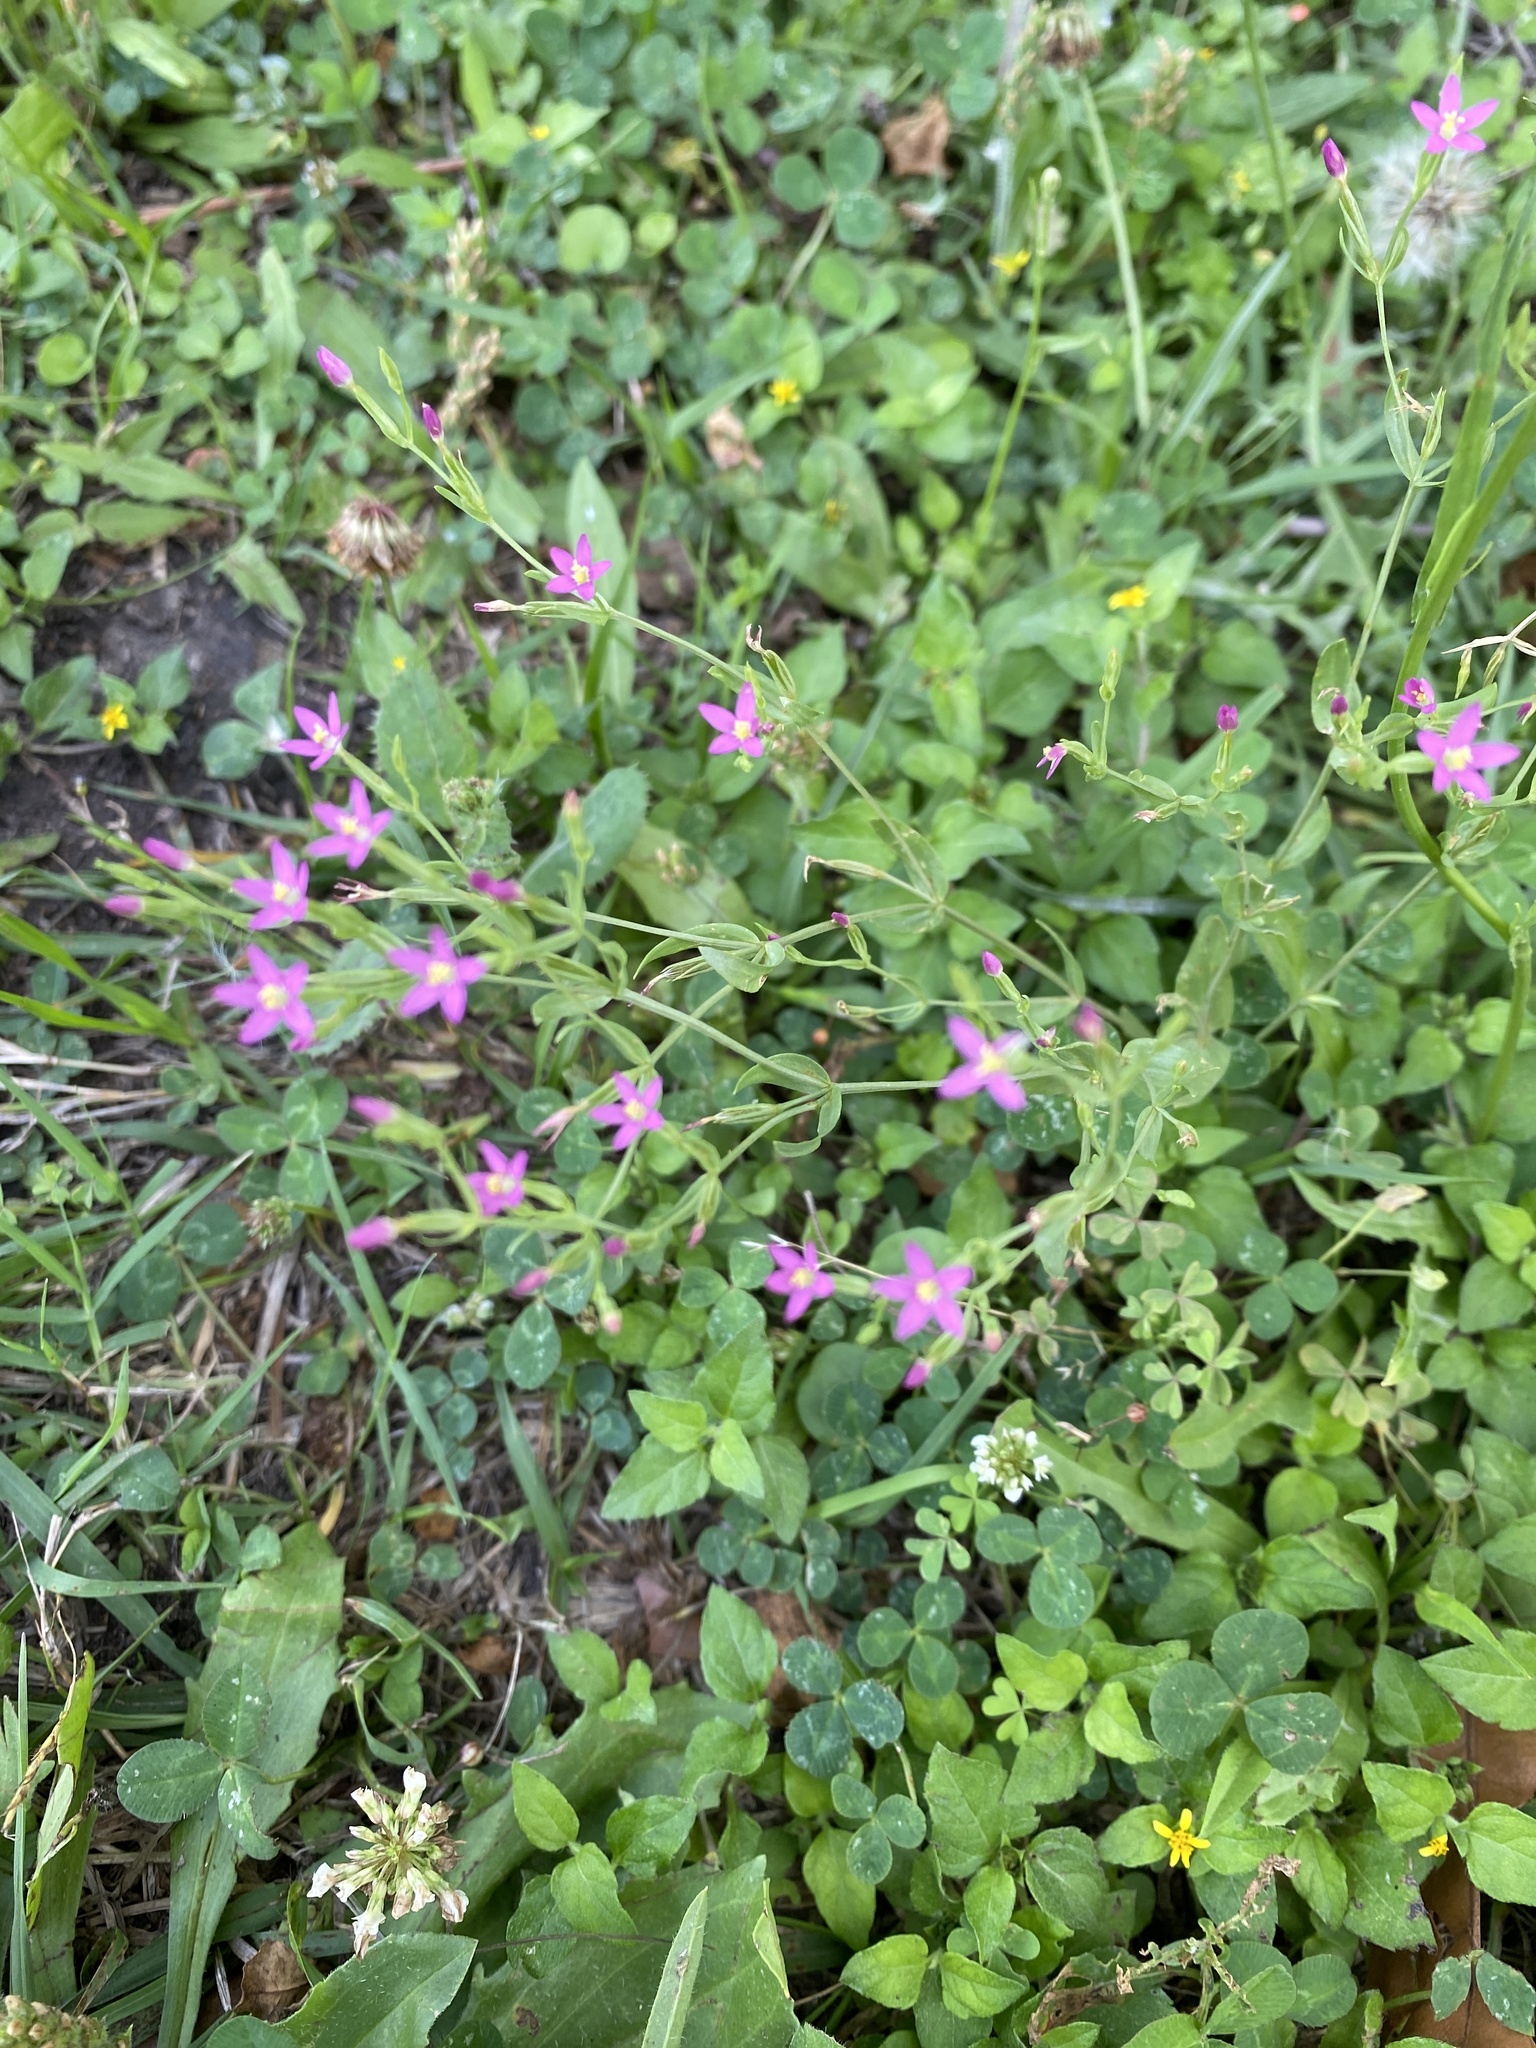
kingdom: Plantae
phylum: Tracheophyta
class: Magnoliopsida
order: Gentianales
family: Gentianaceae
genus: Centaurium
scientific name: Centaurium pulchellum
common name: Lesser centaury
